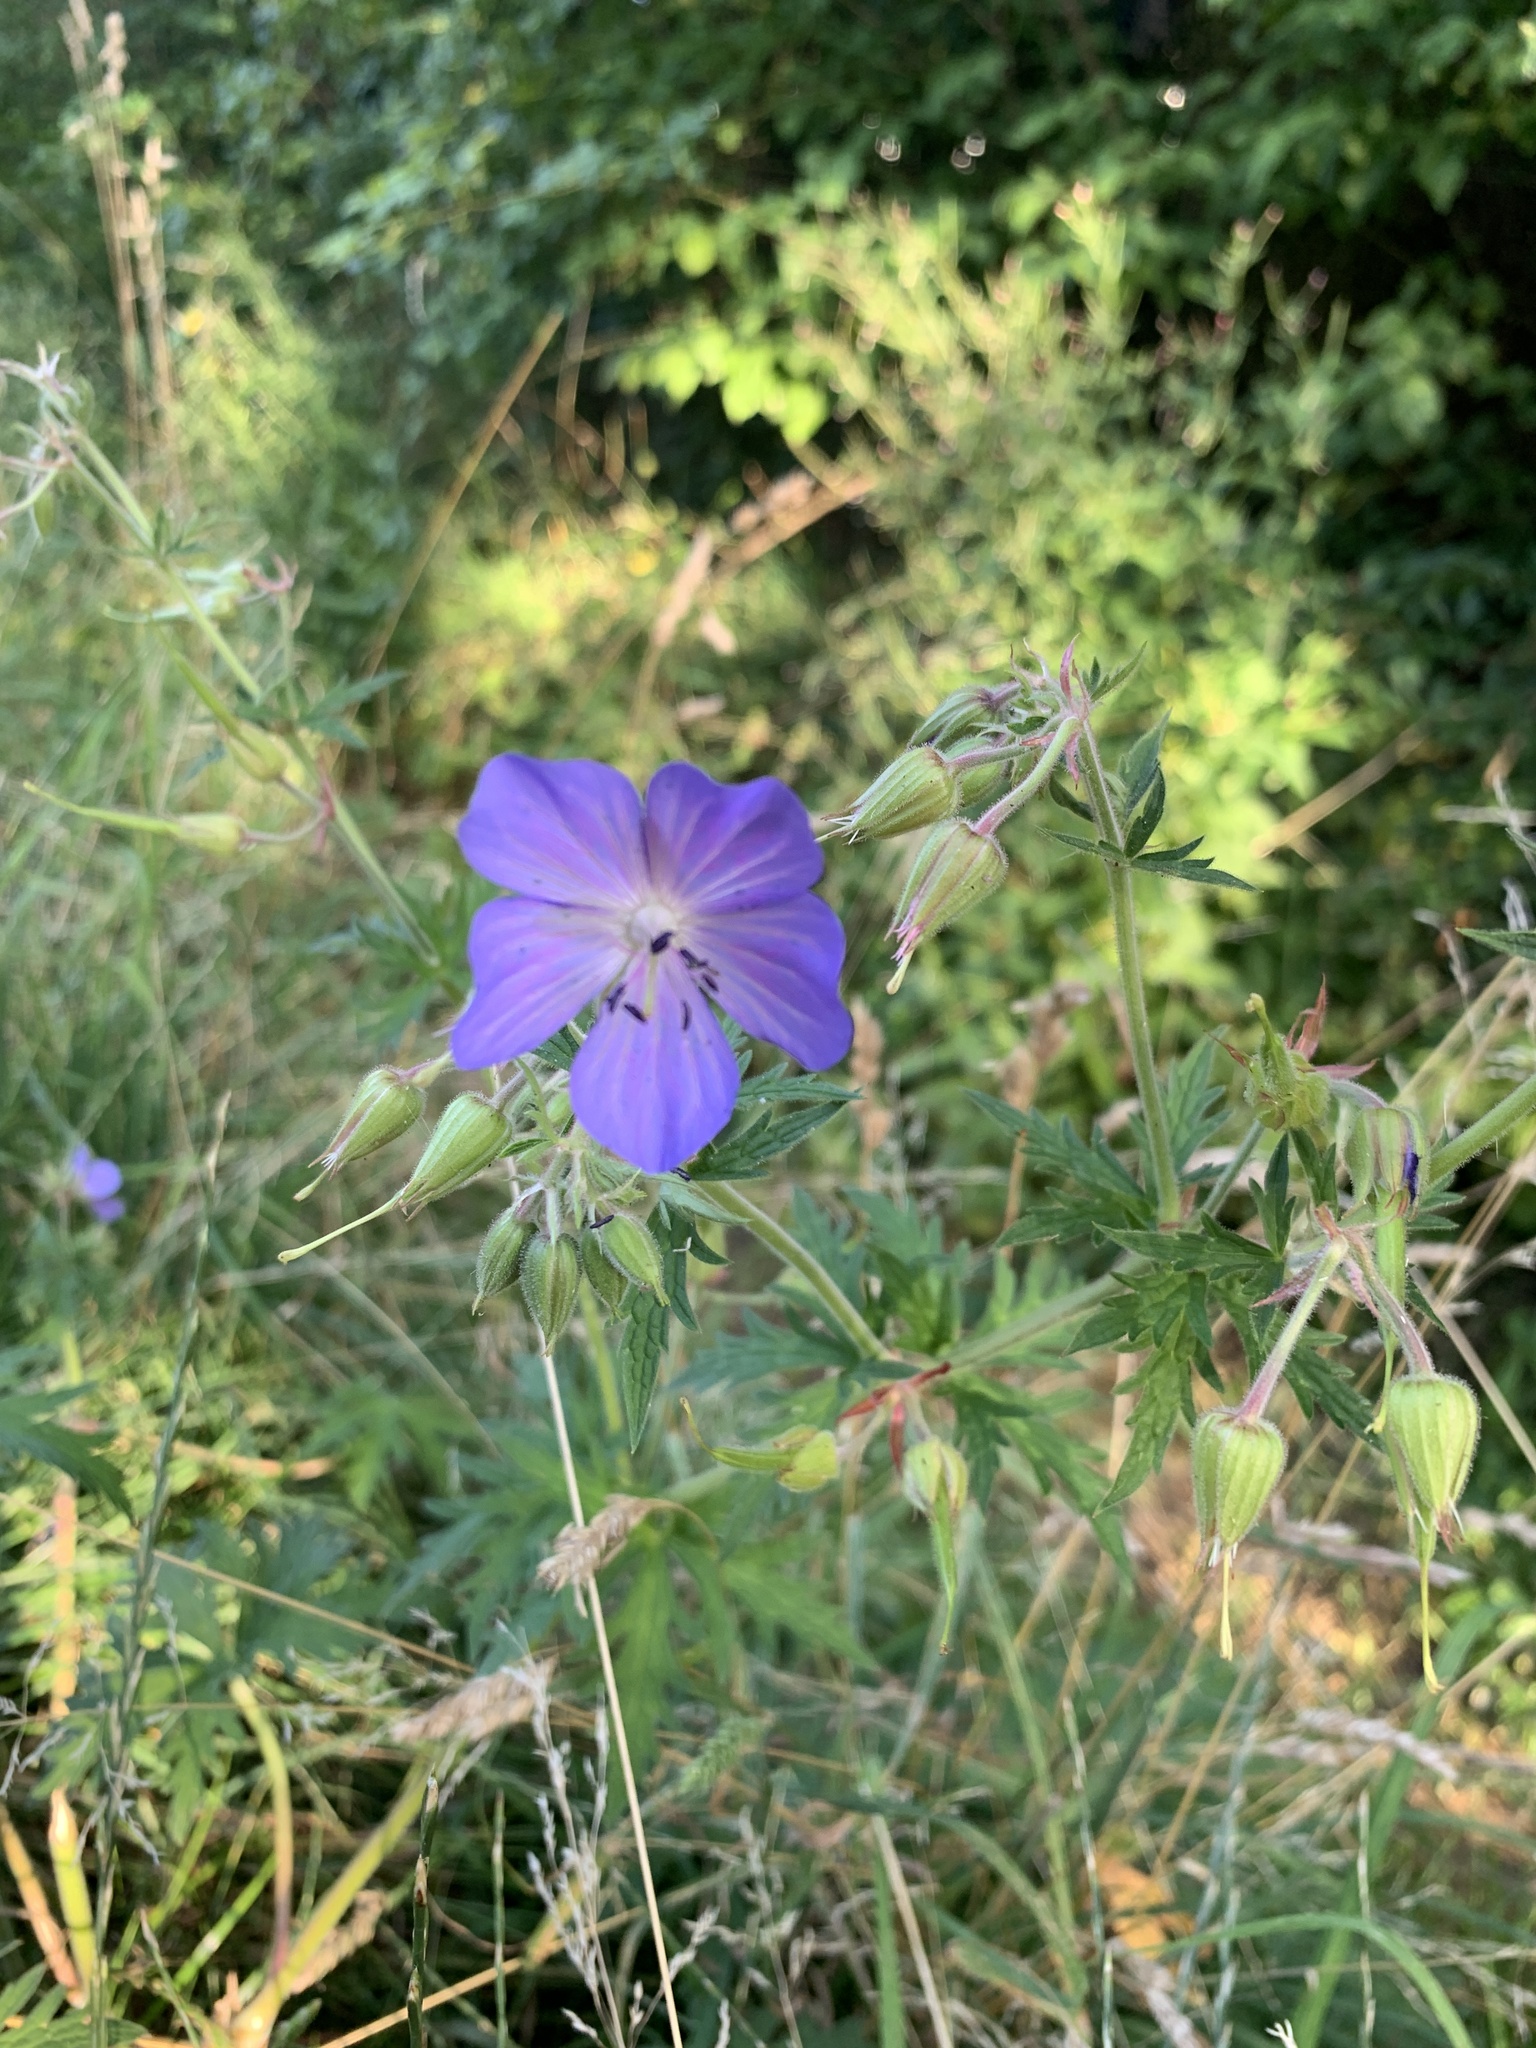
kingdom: Plantae
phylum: Tracheophyta
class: Magnoliopsida
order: Geraniales
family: Geraniaceae
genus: Geranium
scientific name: Geranium pratense
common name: Meadow crane's-bill
